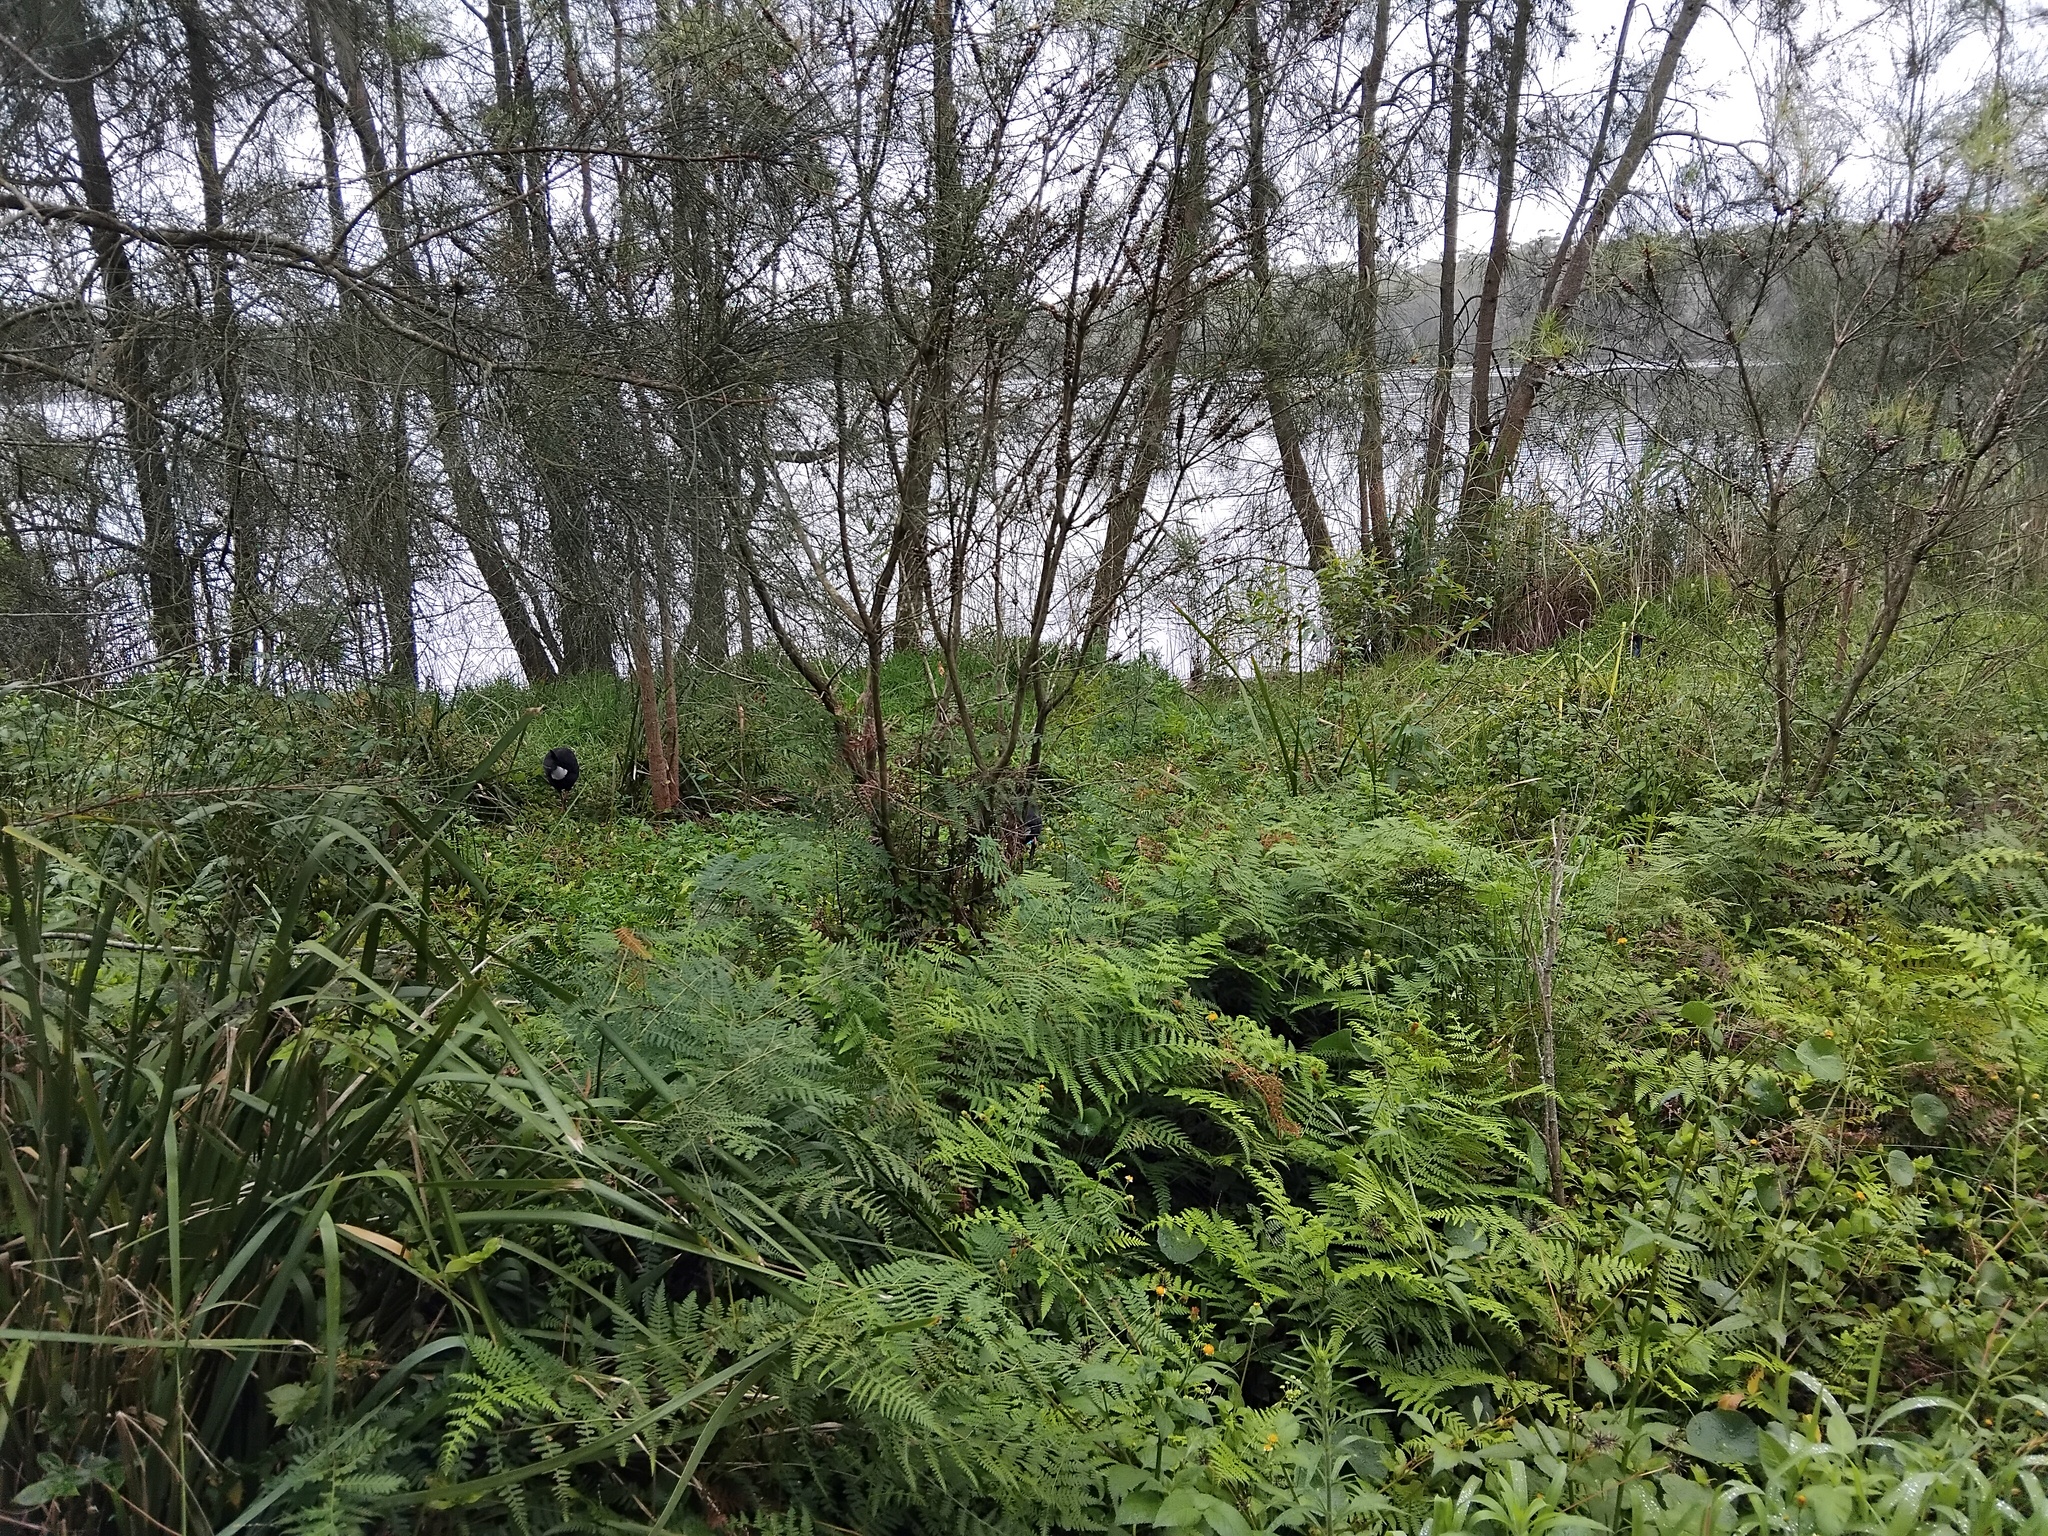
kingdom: Animalia
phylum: Chordata
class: Aves
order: Gruiformes
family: Rallidae
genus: Porphyrio
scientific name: Porphyrio melanotus
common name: Australasian swamphen
